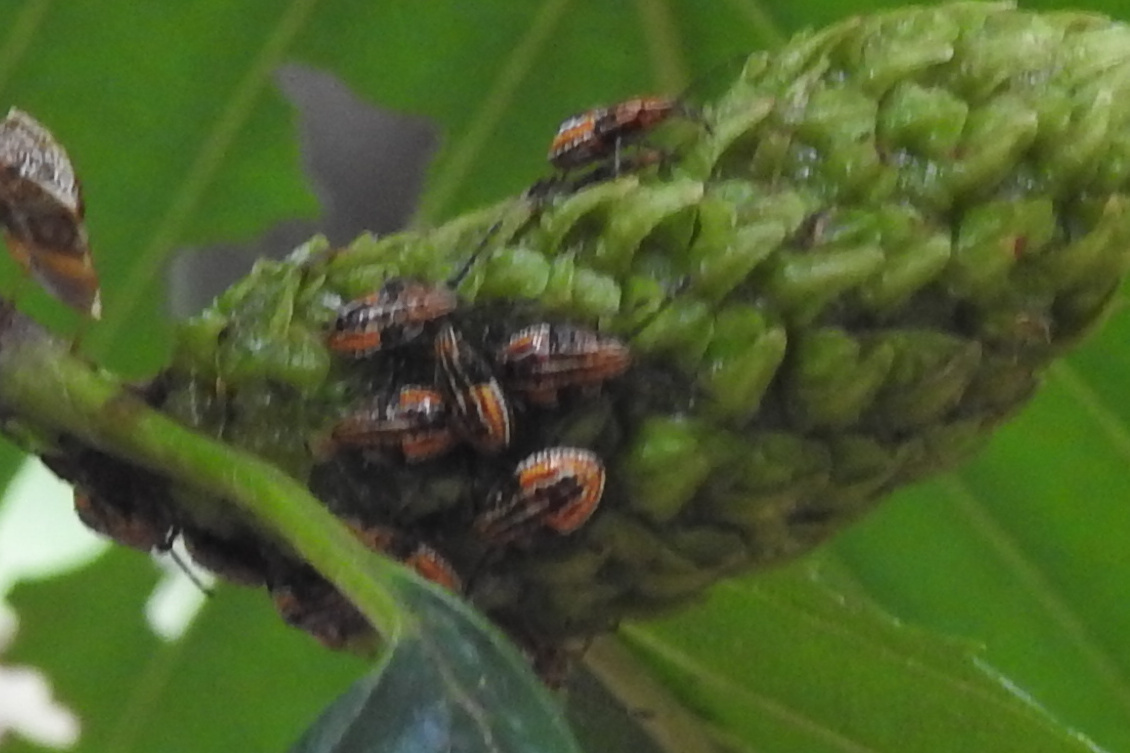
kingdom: Animalia
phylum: Arthropoda
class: Insecta
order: Hemiptera
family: Acanthosomatidae
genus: Elasmucha
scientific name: Elasmucha lateralis
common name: Shield bug
